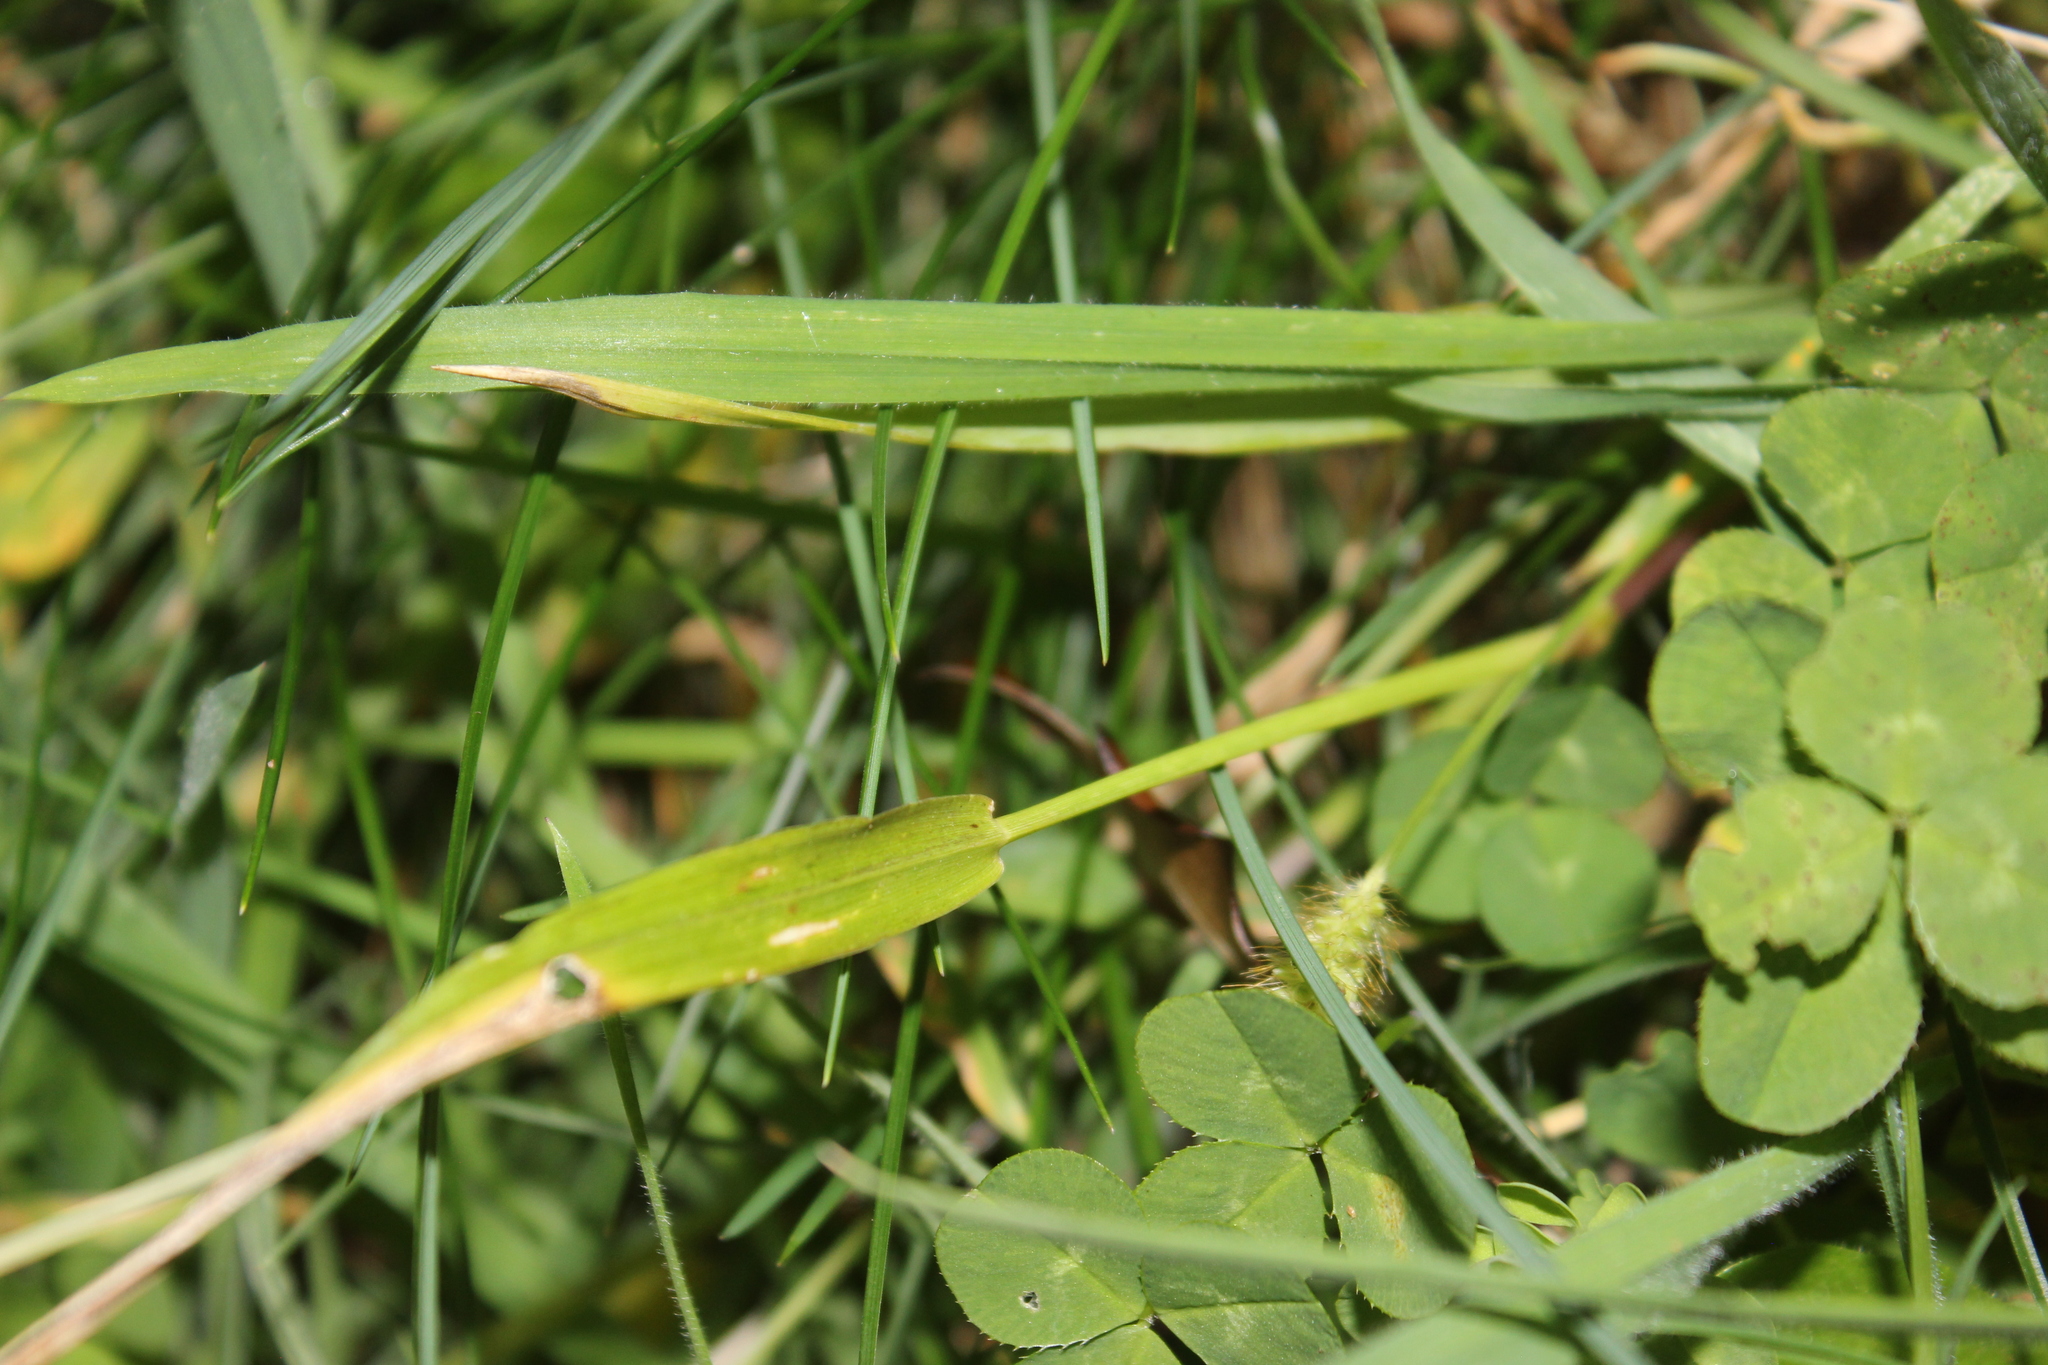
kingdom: Plantae
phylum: Tracheophyta
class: Liliopsida
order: Poales
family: Poaceae
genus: Setaria
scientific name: Setaria pumila
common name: Yellow bristle-grass
